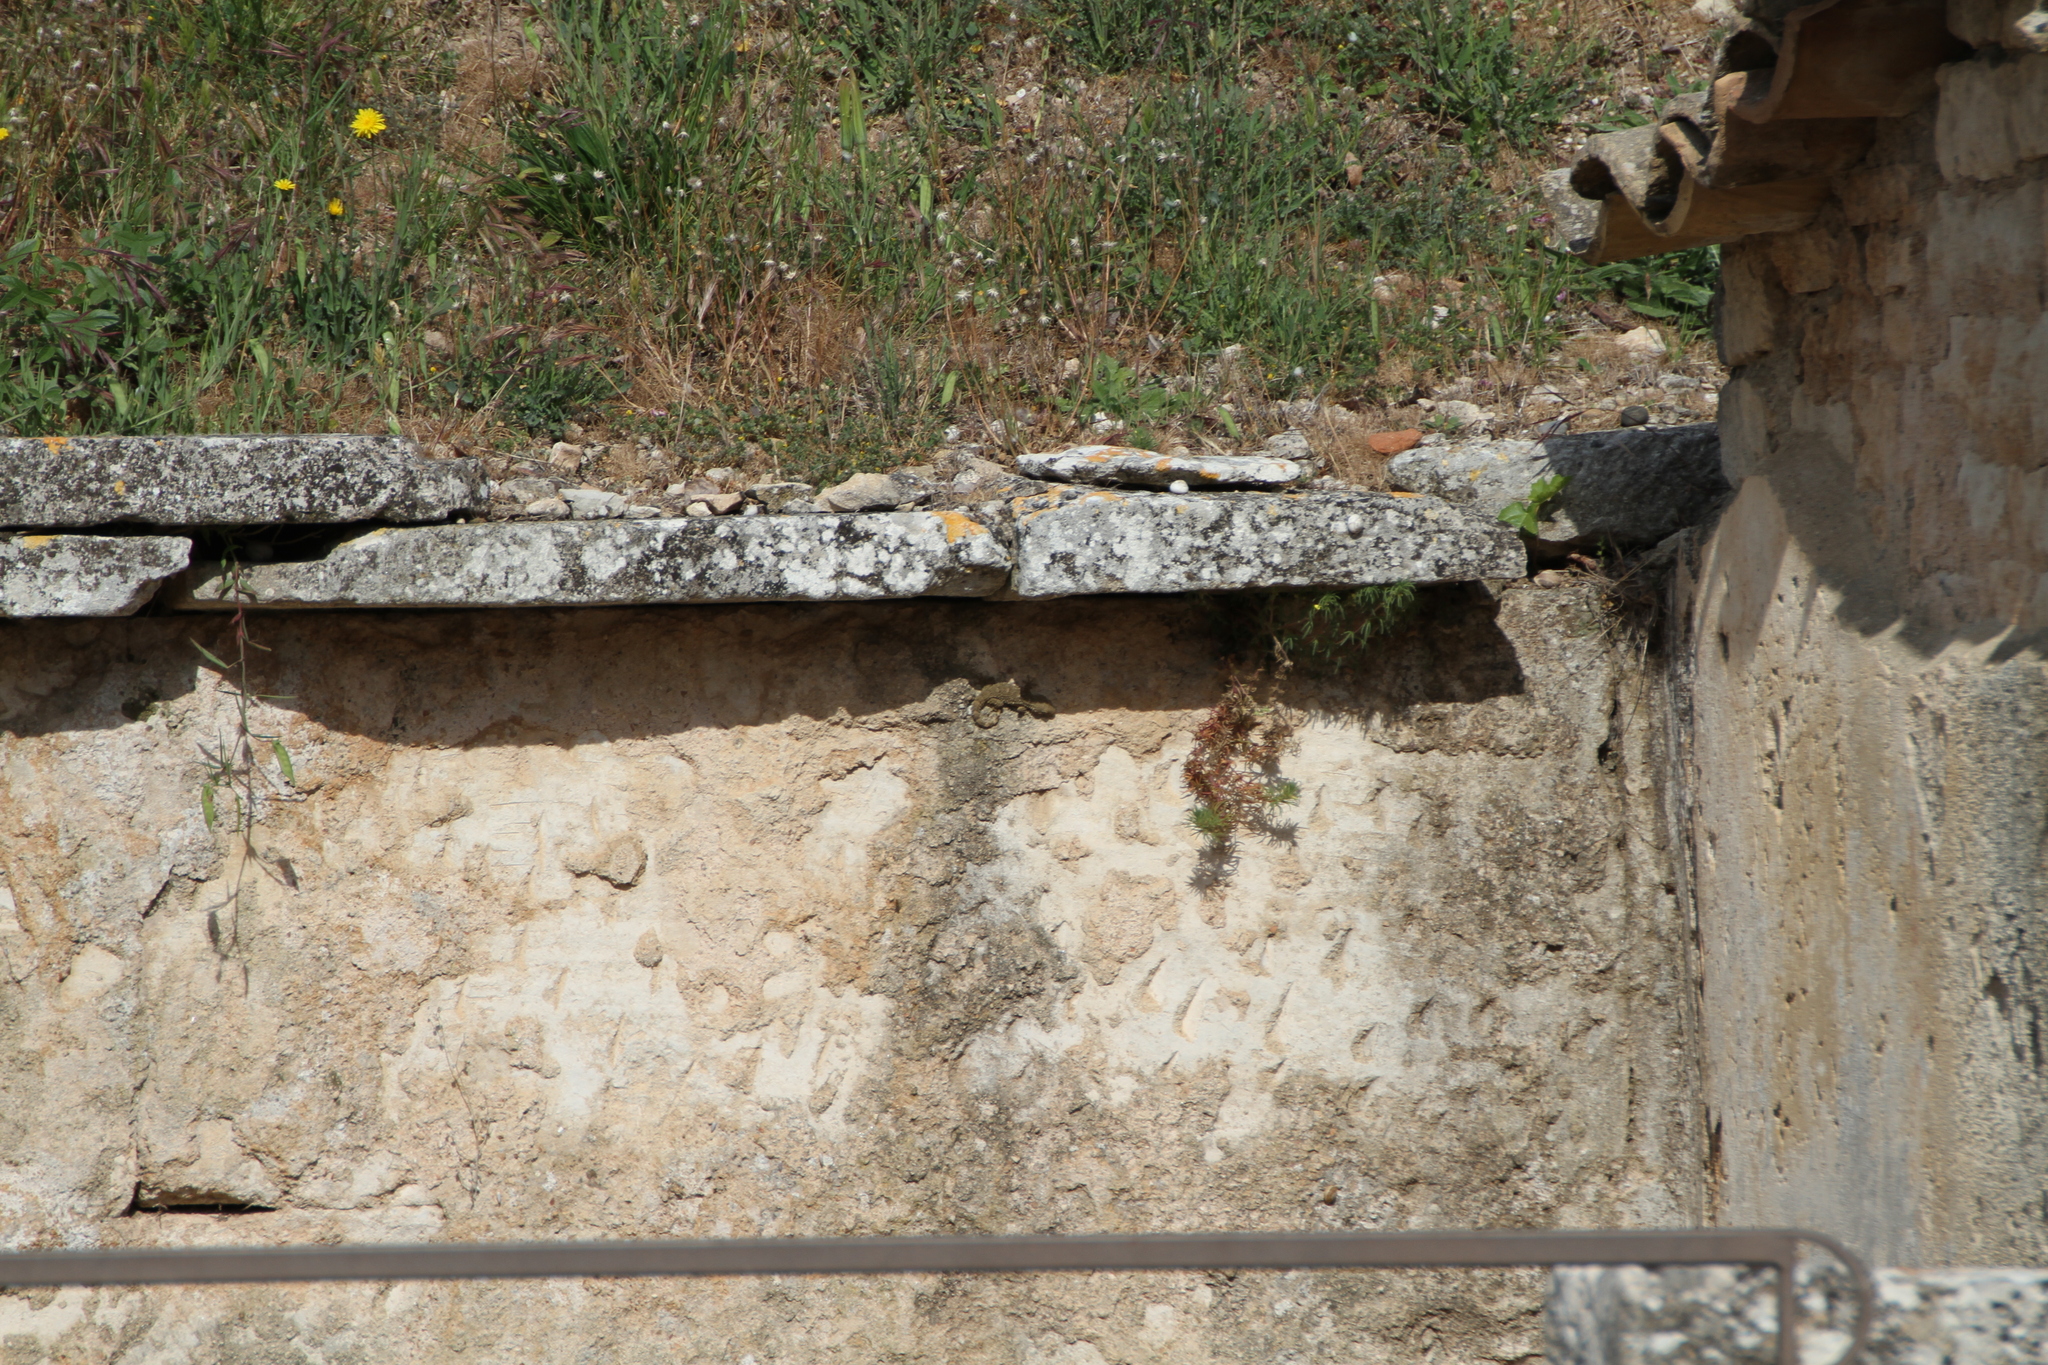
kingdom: Animalia
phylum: Chordata
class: Squamata
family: Phyllodactylidae
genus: Tarentola
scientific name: Tarentola mauritanica
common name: Moorish gecko
